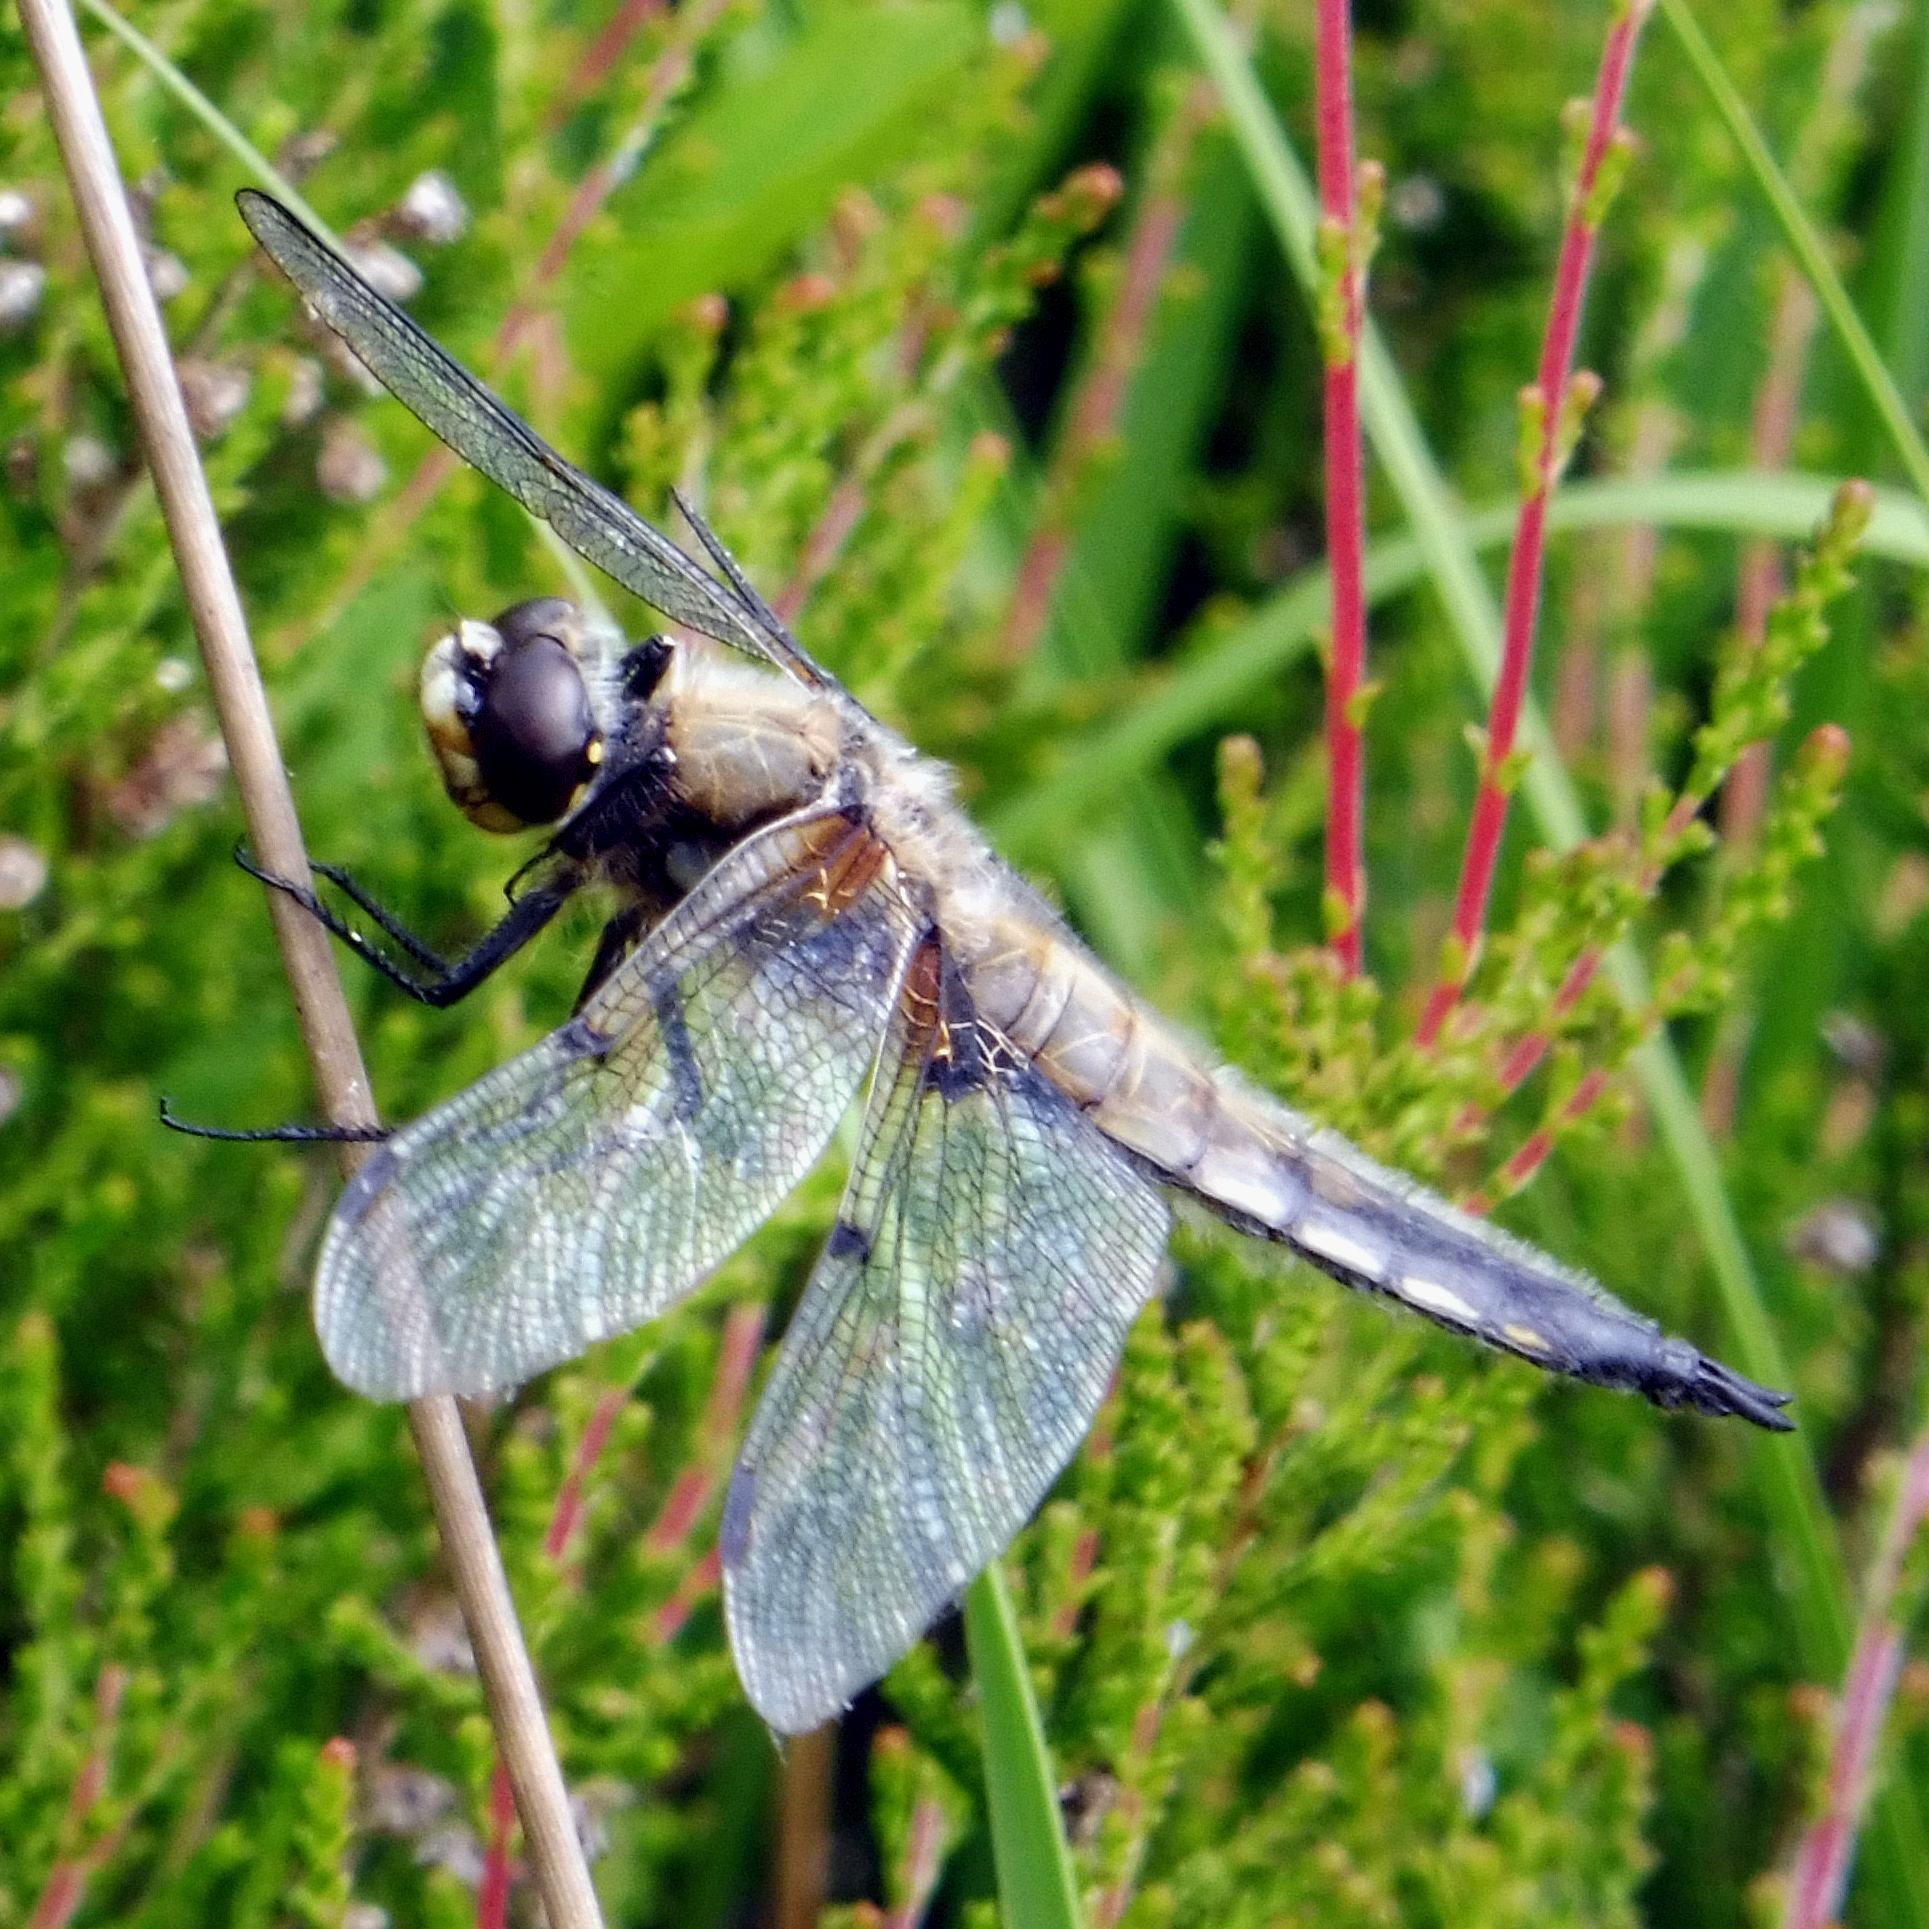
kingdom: Animalia
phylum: Arthropoda
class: Insecta
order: Odonata
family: Libellulidae
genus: Libellula
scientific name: Libellula quadrimaculata
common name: Four-spotted chaser
